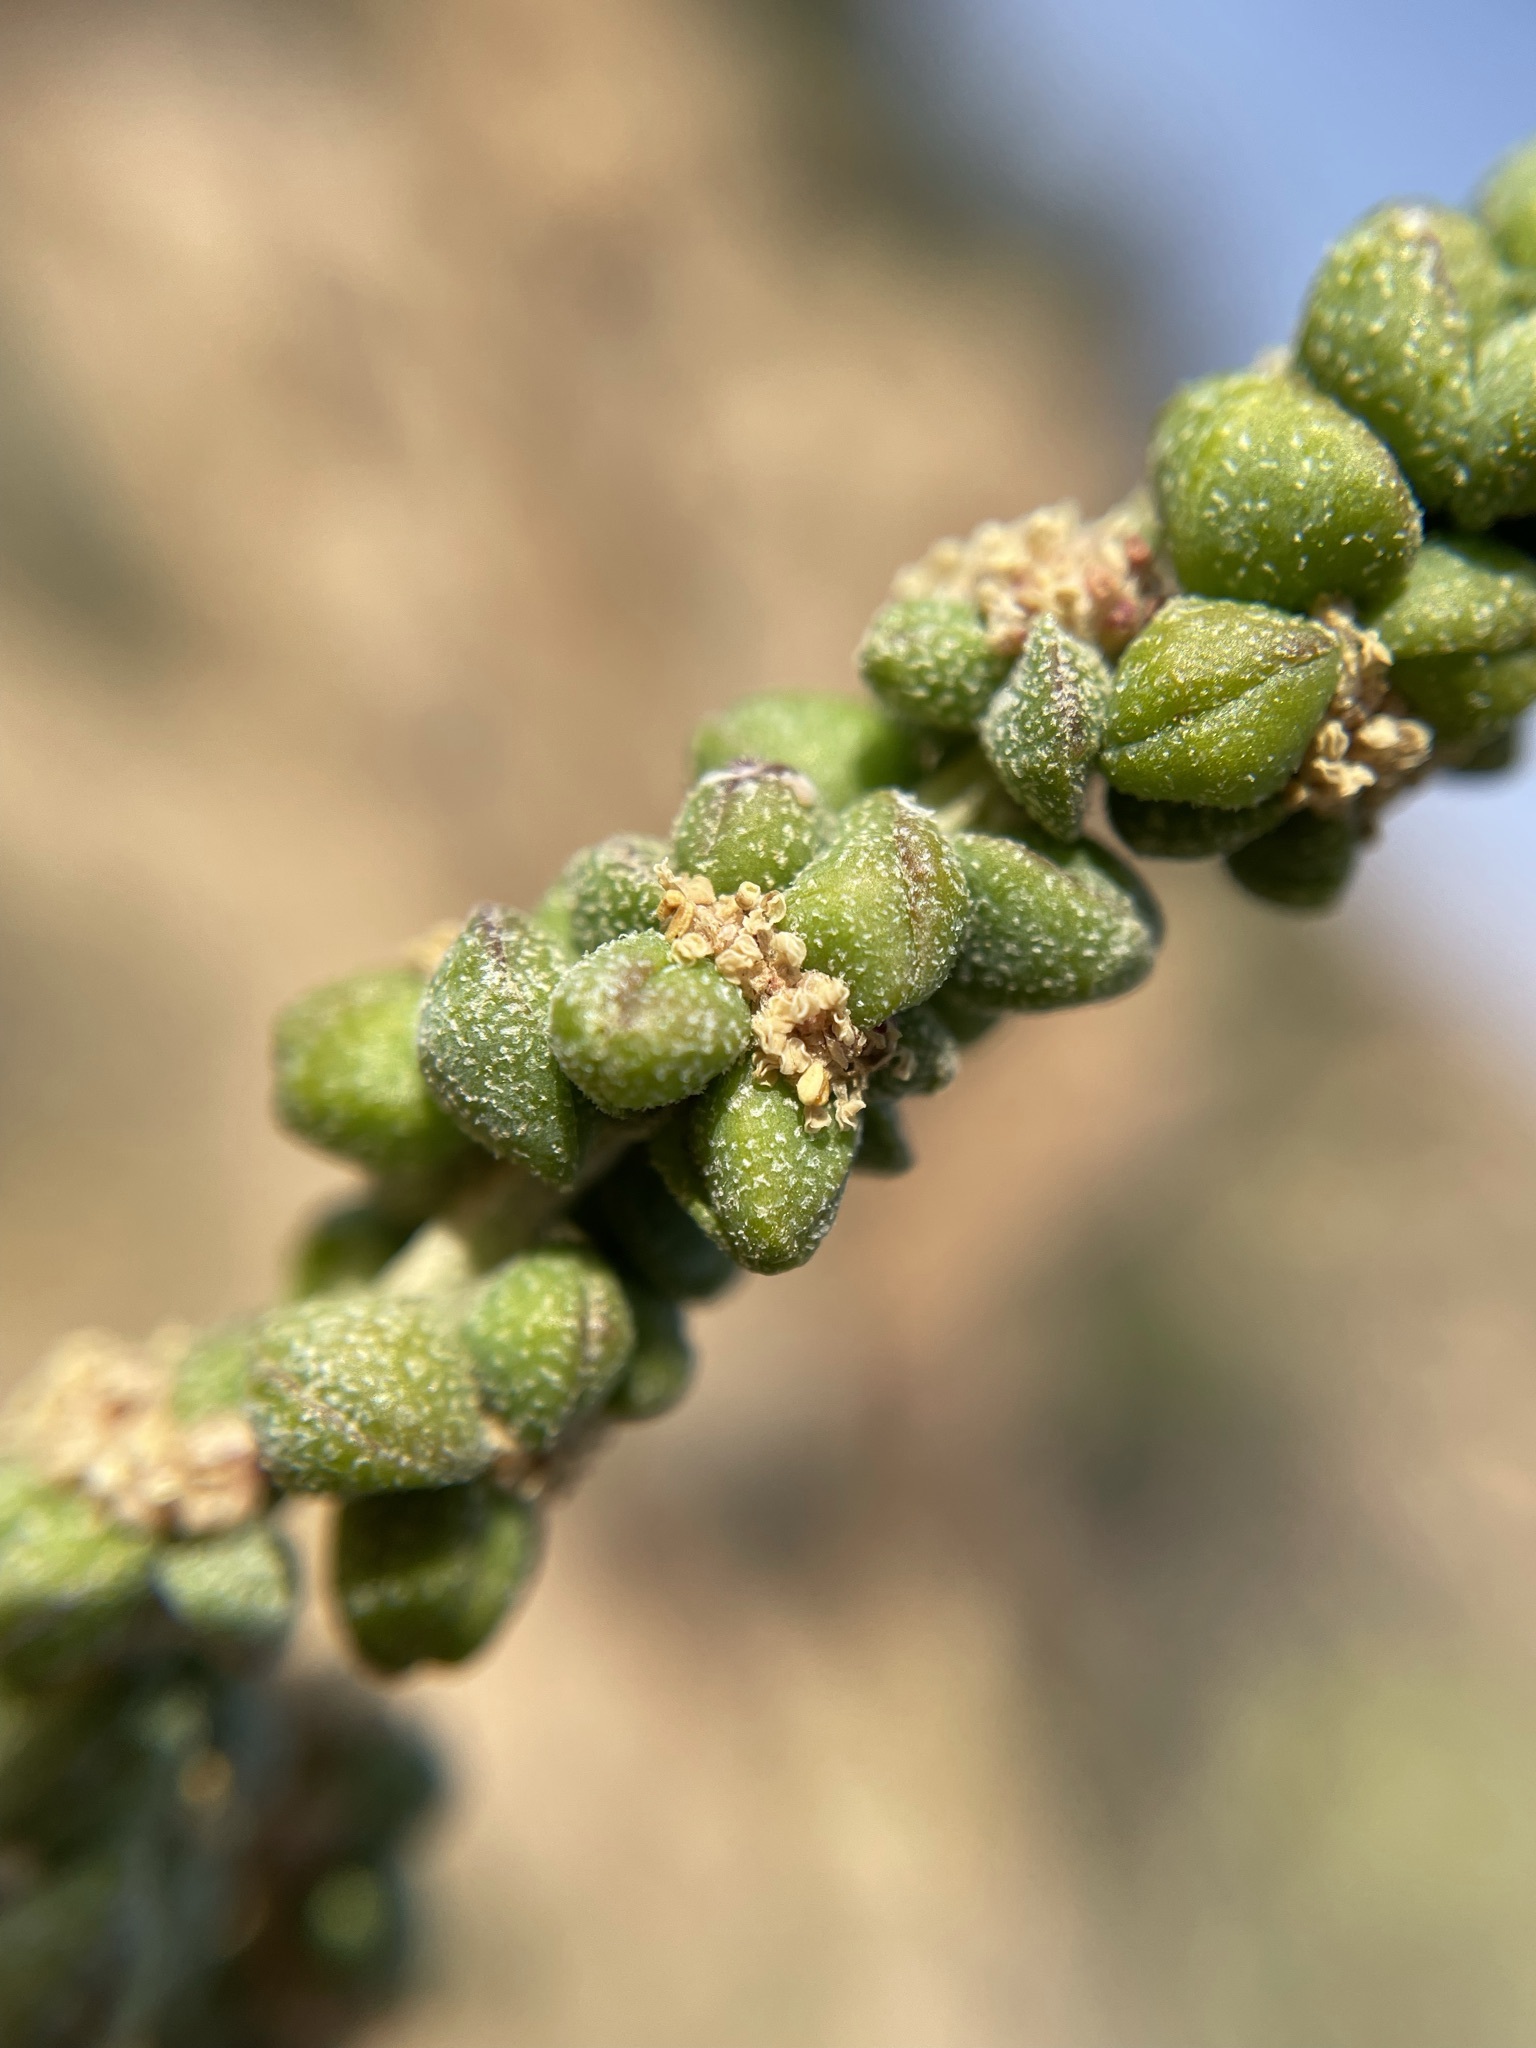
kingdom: Plantae
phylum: Tracheophyta
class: Magnoliopsida
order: Caryophyllales
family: Amaranthaceae
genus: Exomis
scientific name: Exomis albicans
